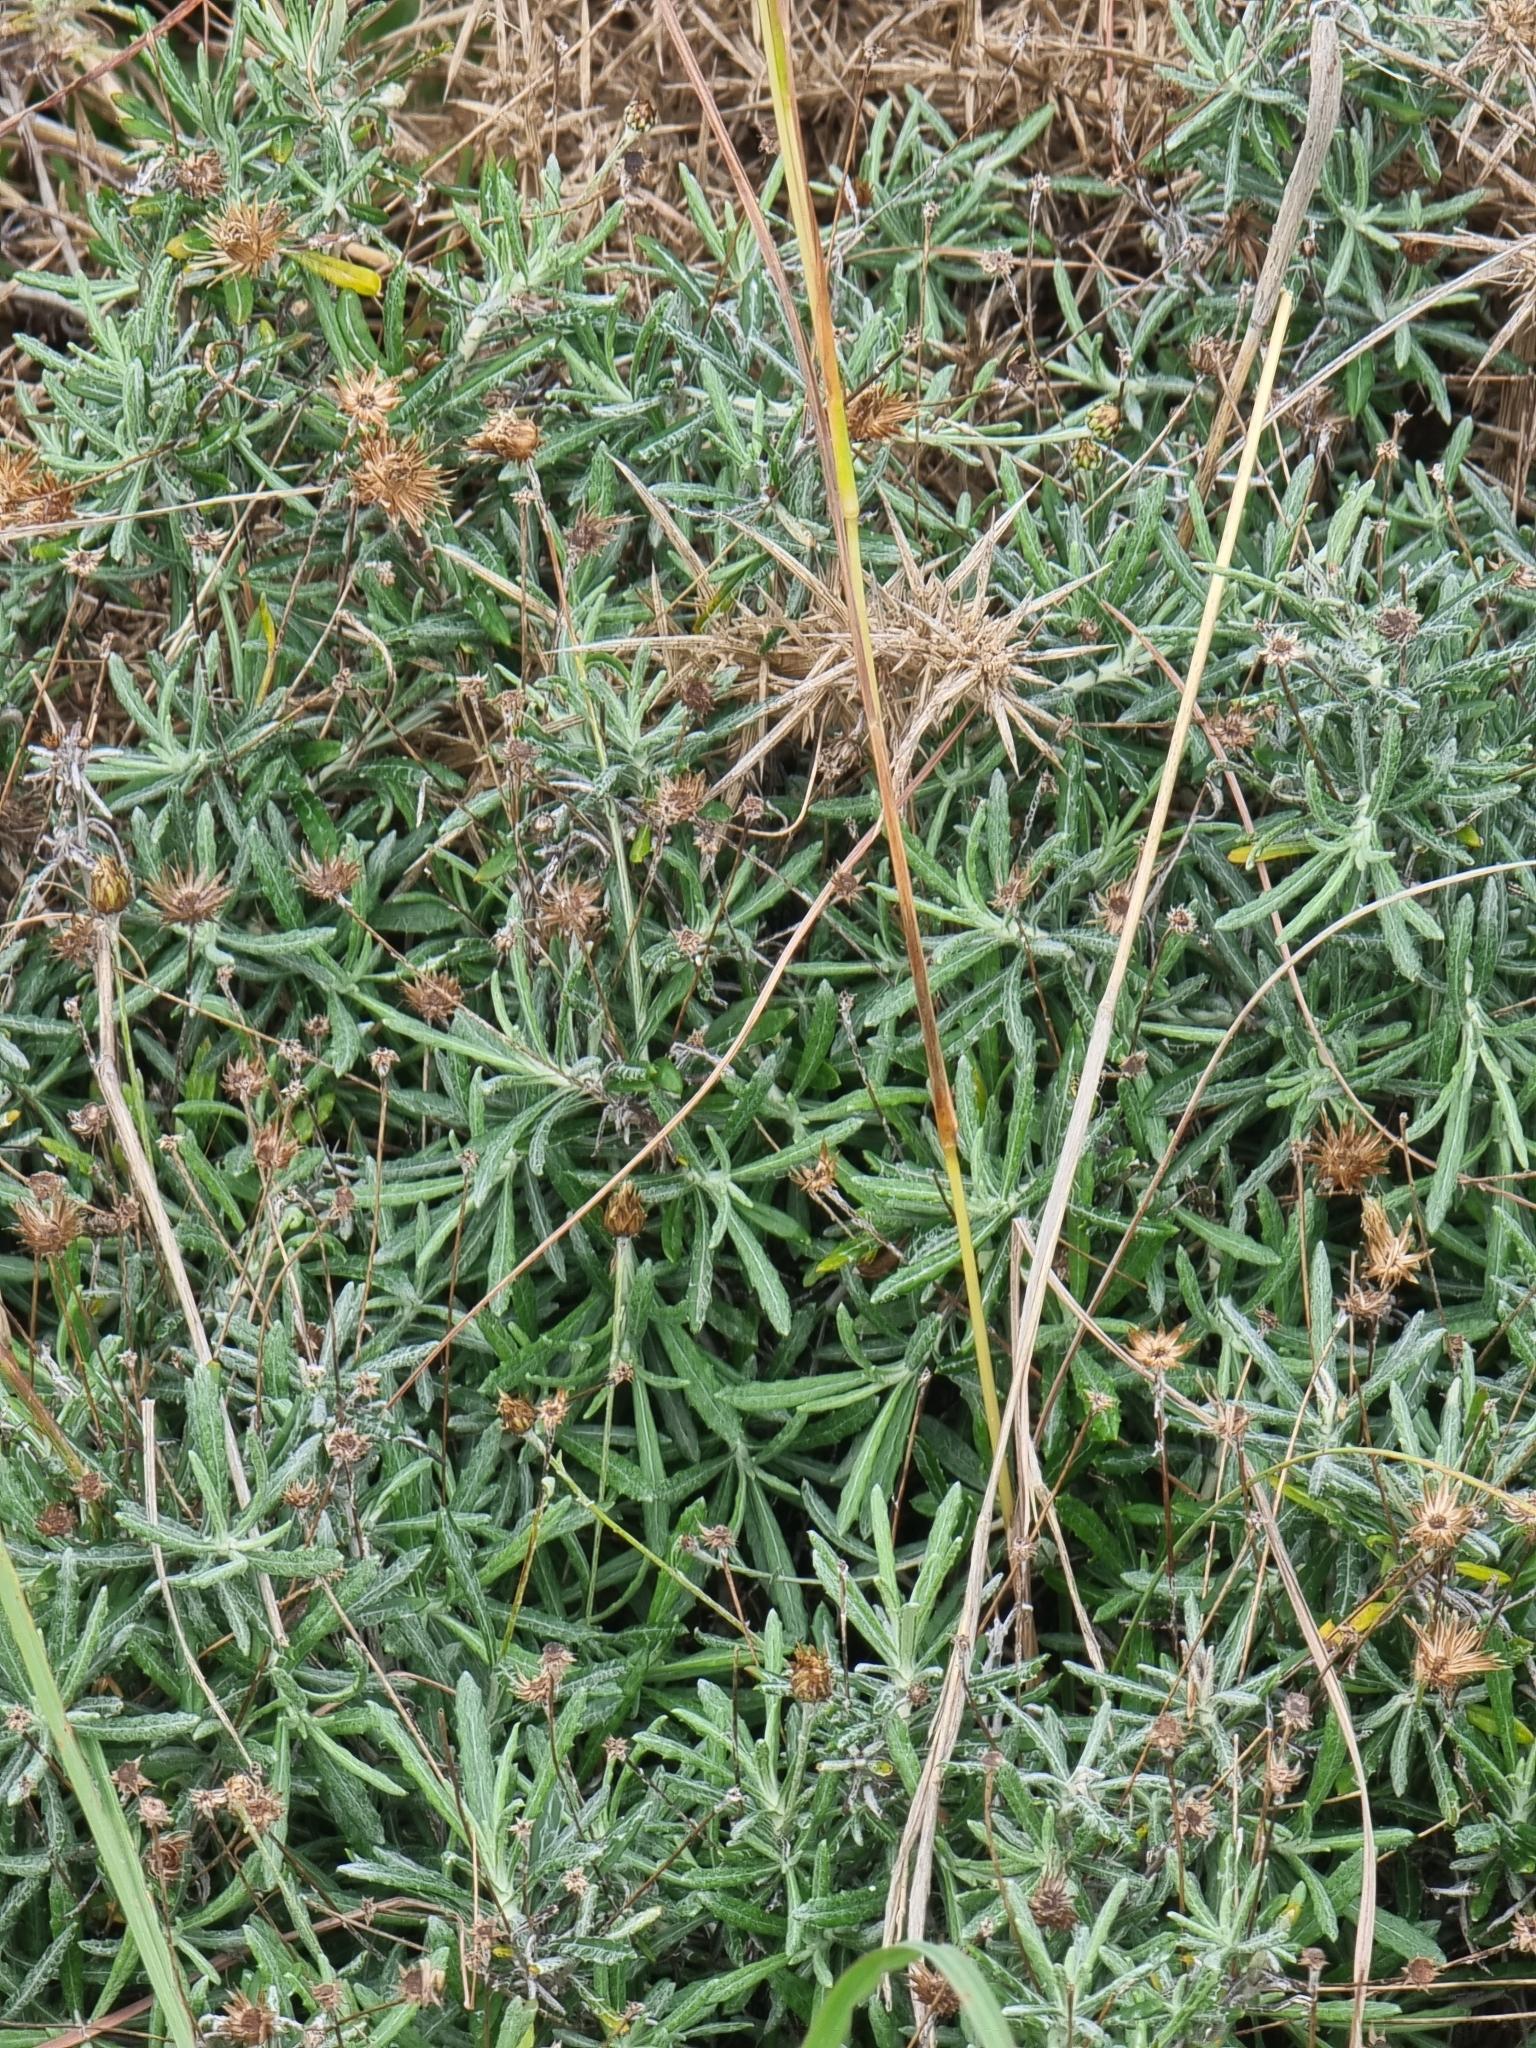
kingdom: Plantae
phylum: Tracheophyta
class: Magnoliopsida
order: Asterales
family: Asteraceae
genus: Phagnalon
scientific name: Phagnalon saxatile
